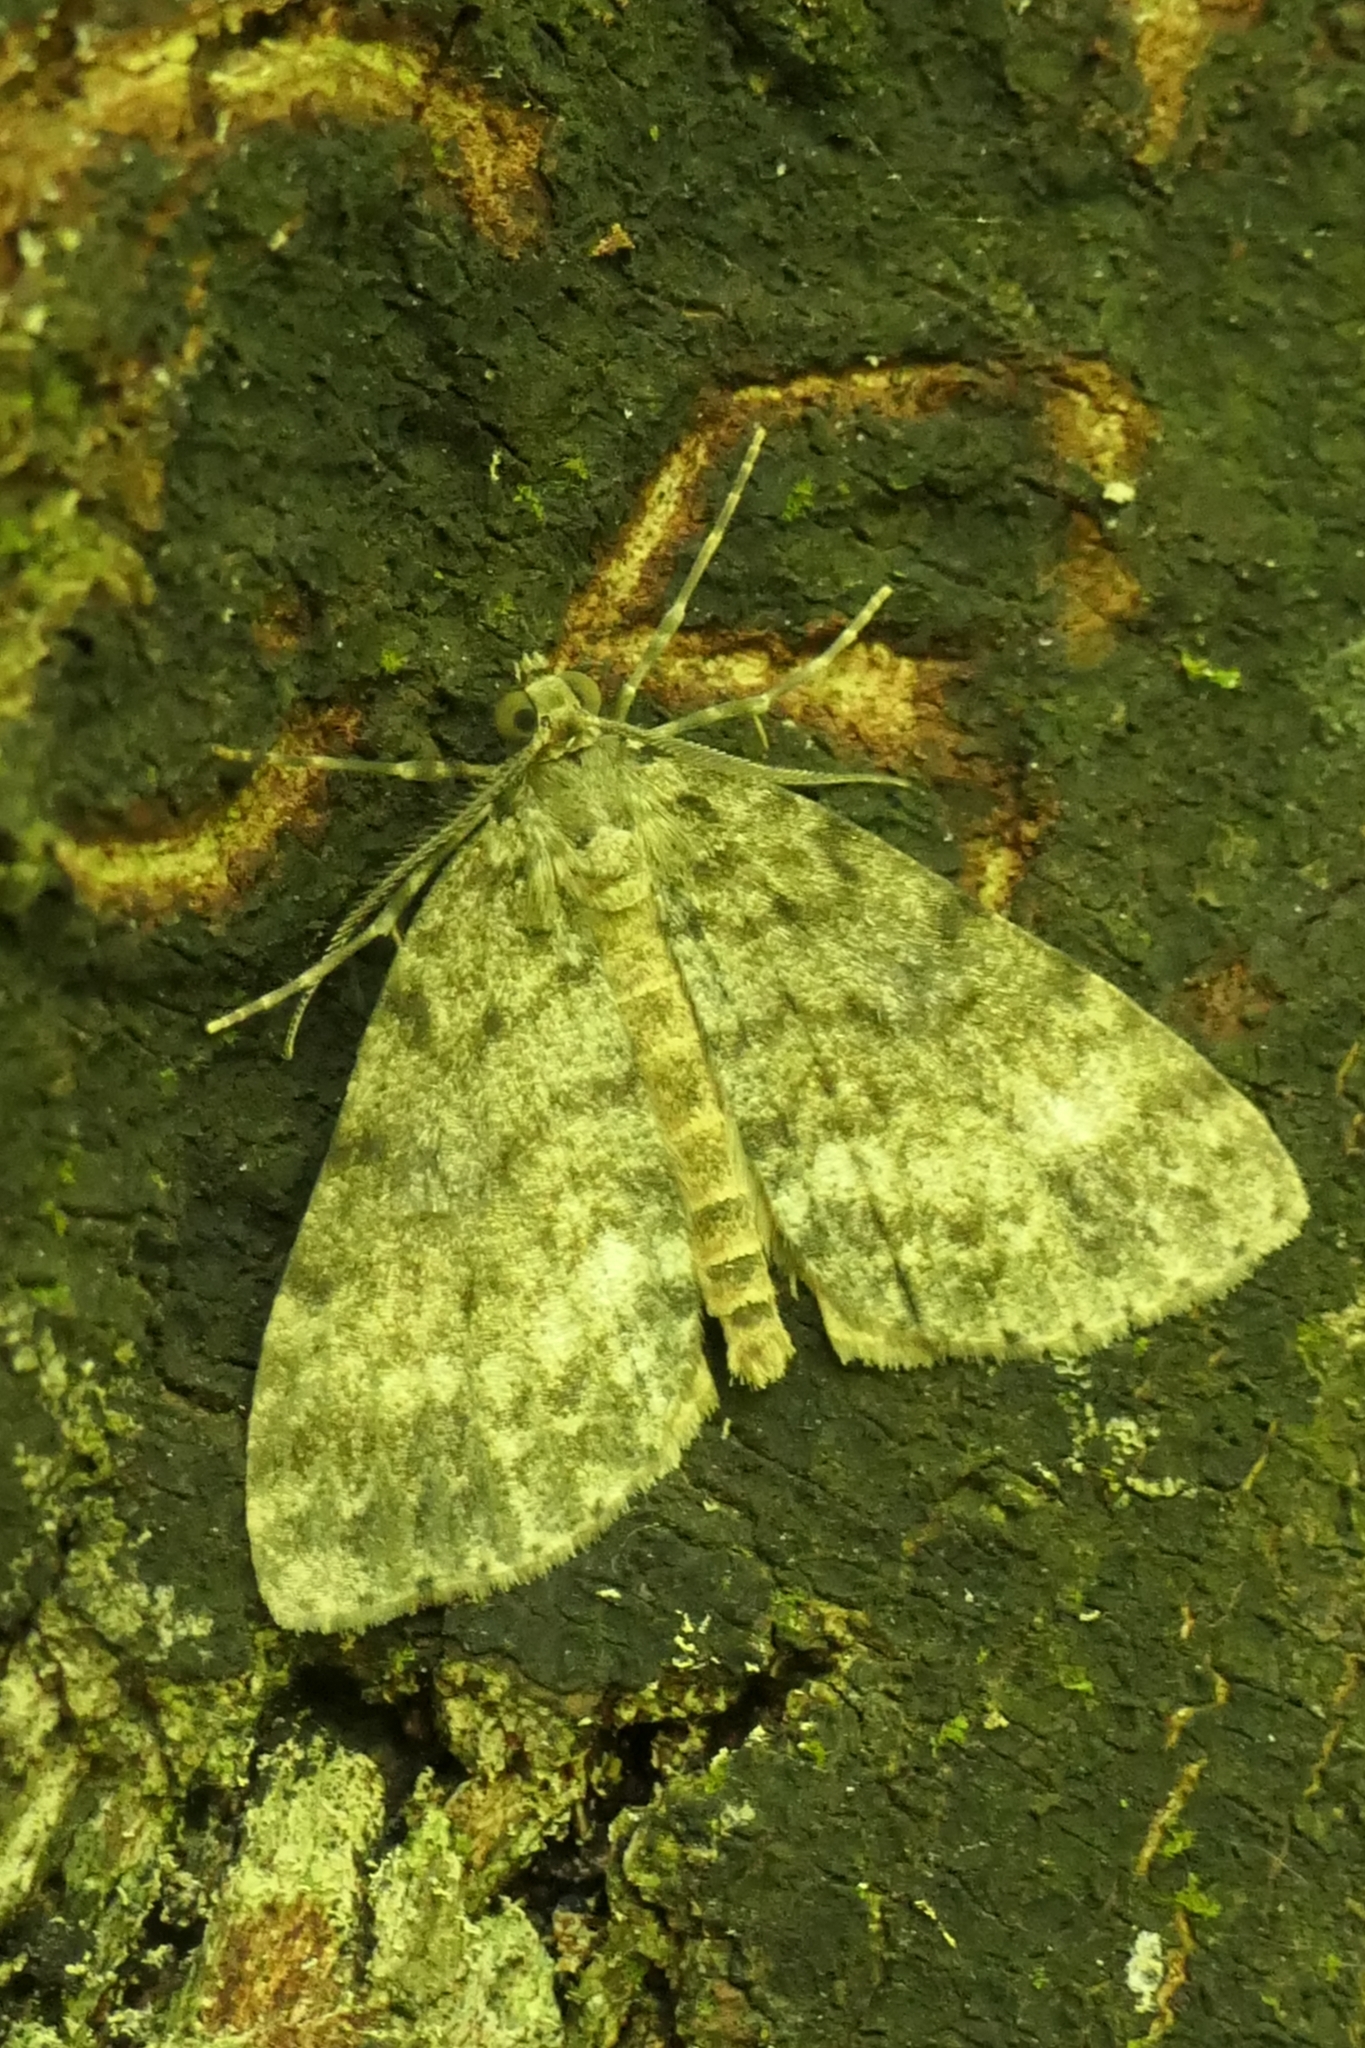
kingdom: Animalia
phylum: Arthropoda
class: Insecta
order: Lepidoptera
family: Geometridae
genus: Pseudocoremia
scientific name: Pseudocoremia indistincta
